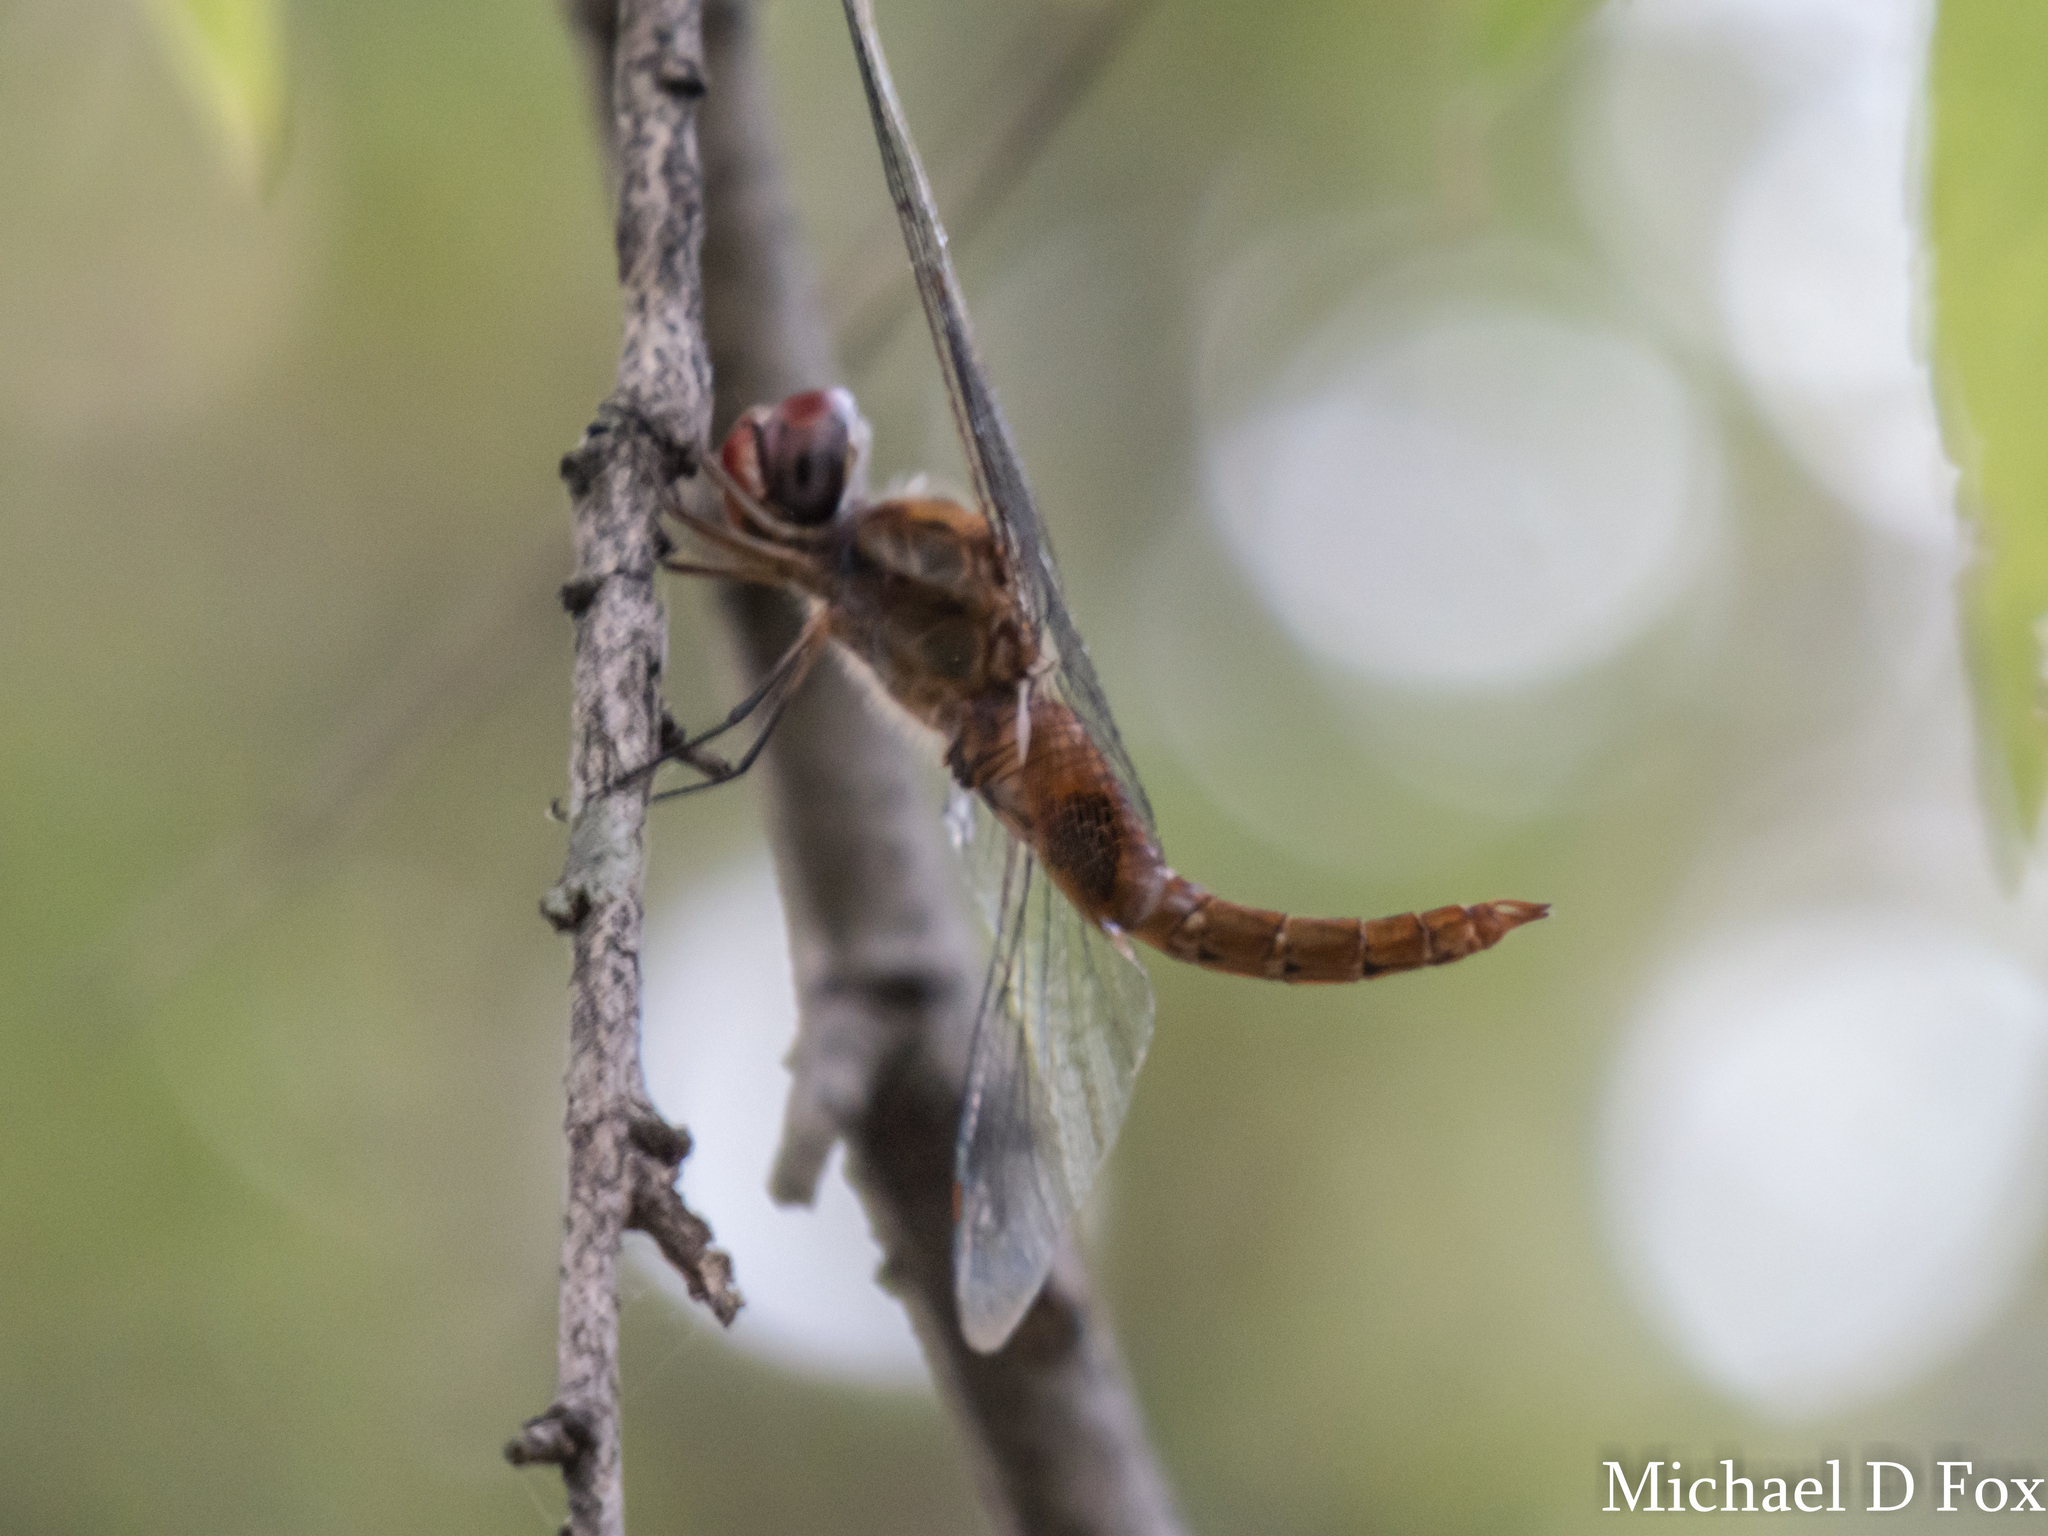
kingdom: Animalia
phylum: Arthropoda
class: Insecta
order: Odonata
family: Libellulidae
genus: Pantala
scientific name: Pantala hymenaea
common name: Spot-winged glider
